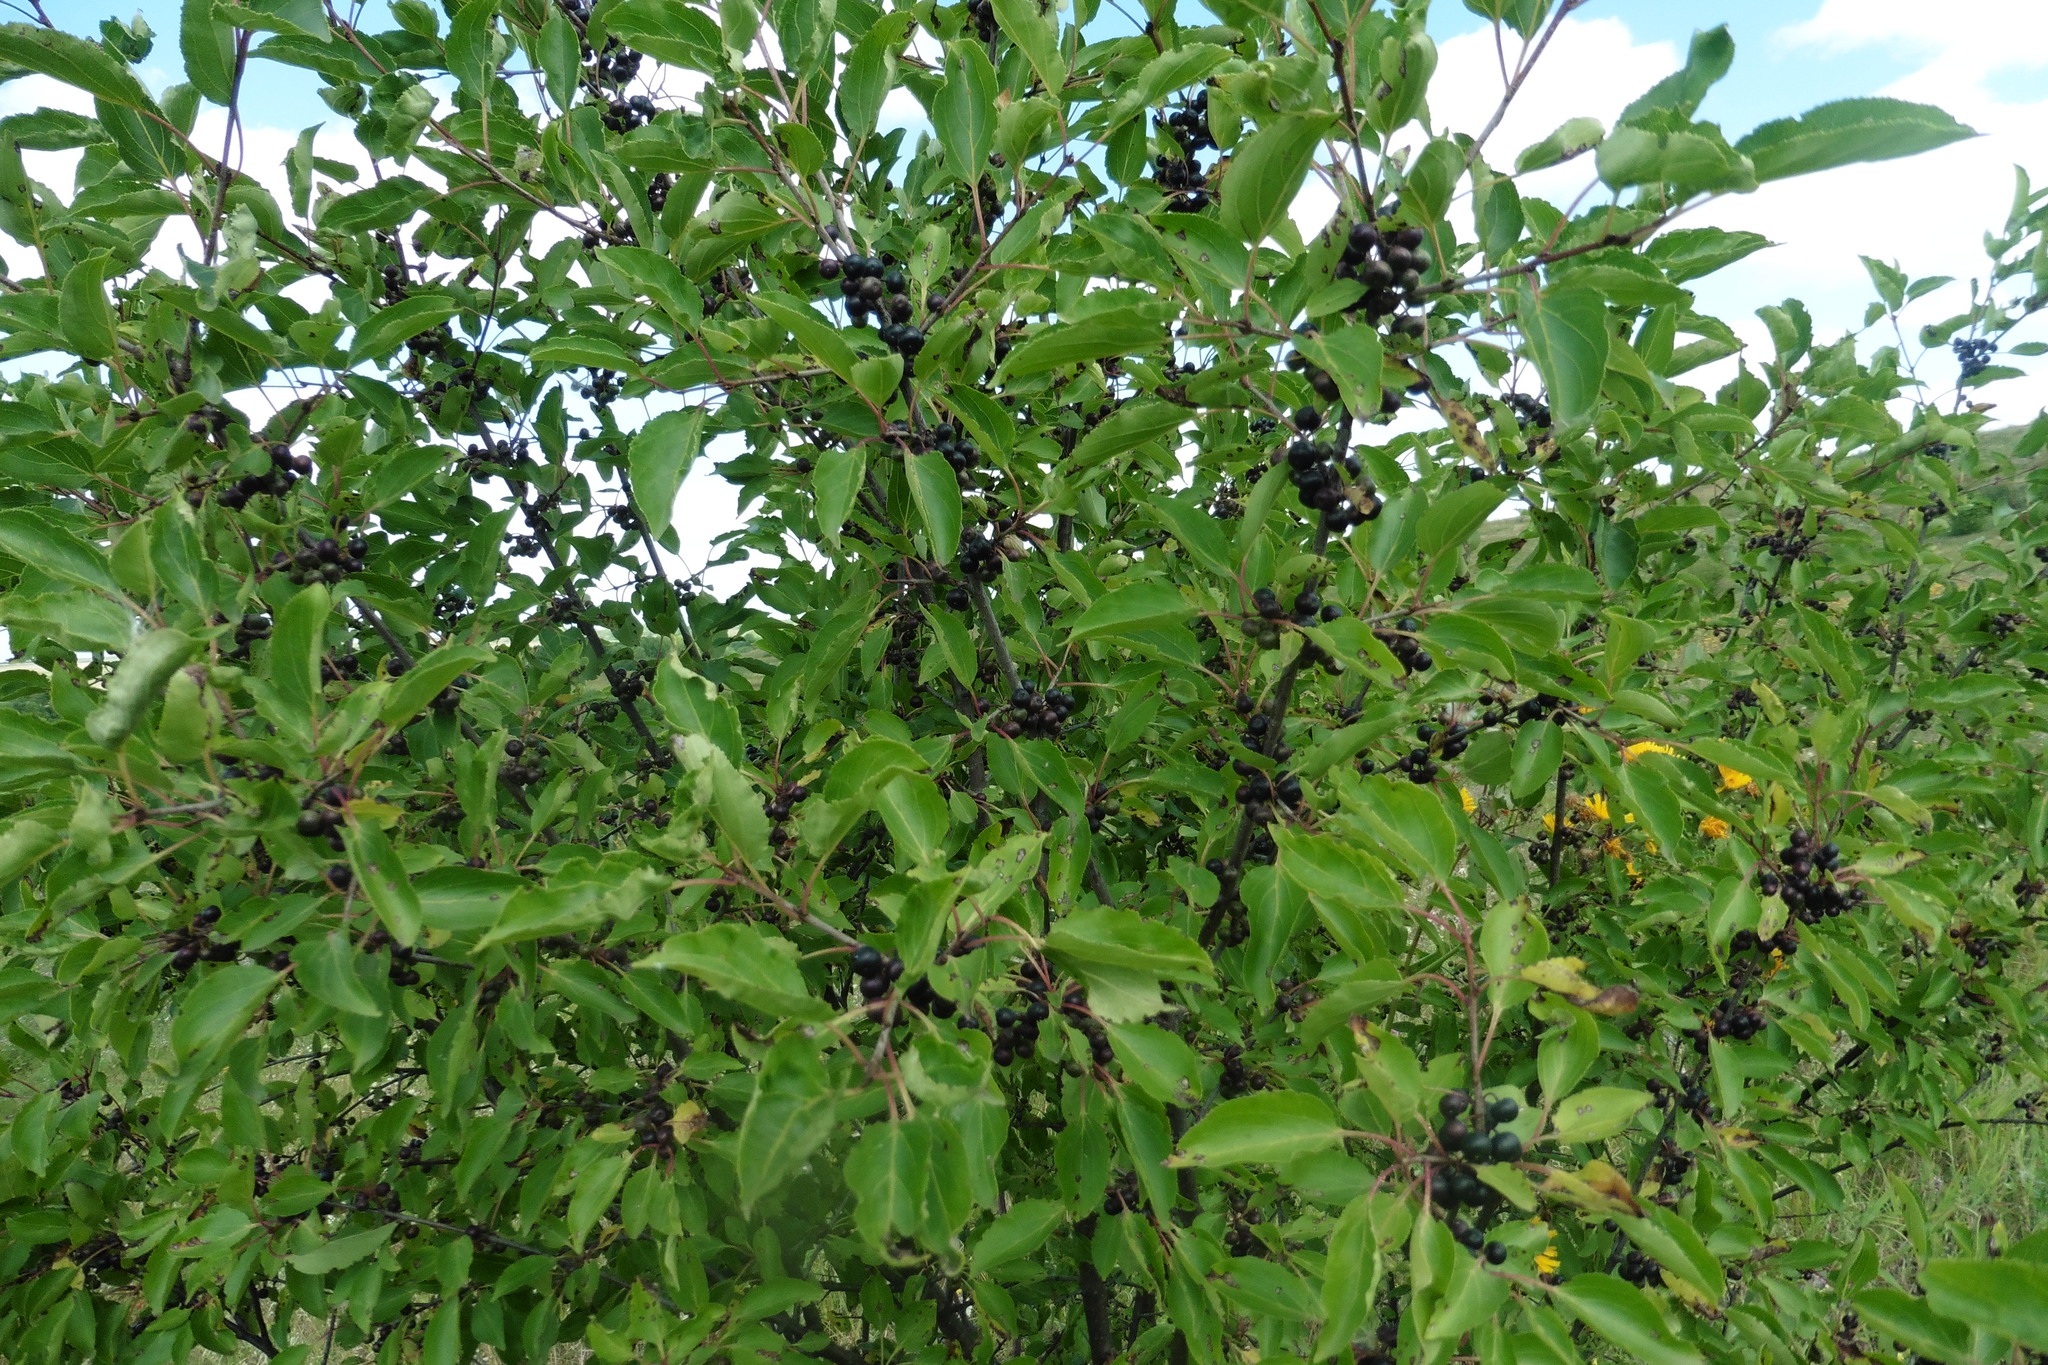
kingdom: Plantae
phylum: Tracheophyta
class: Magnoliopsida
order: Rosales
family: Rhamnaceae
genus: Rhamnus
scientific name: Rhamnus cathartica
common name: Common buckthorn
